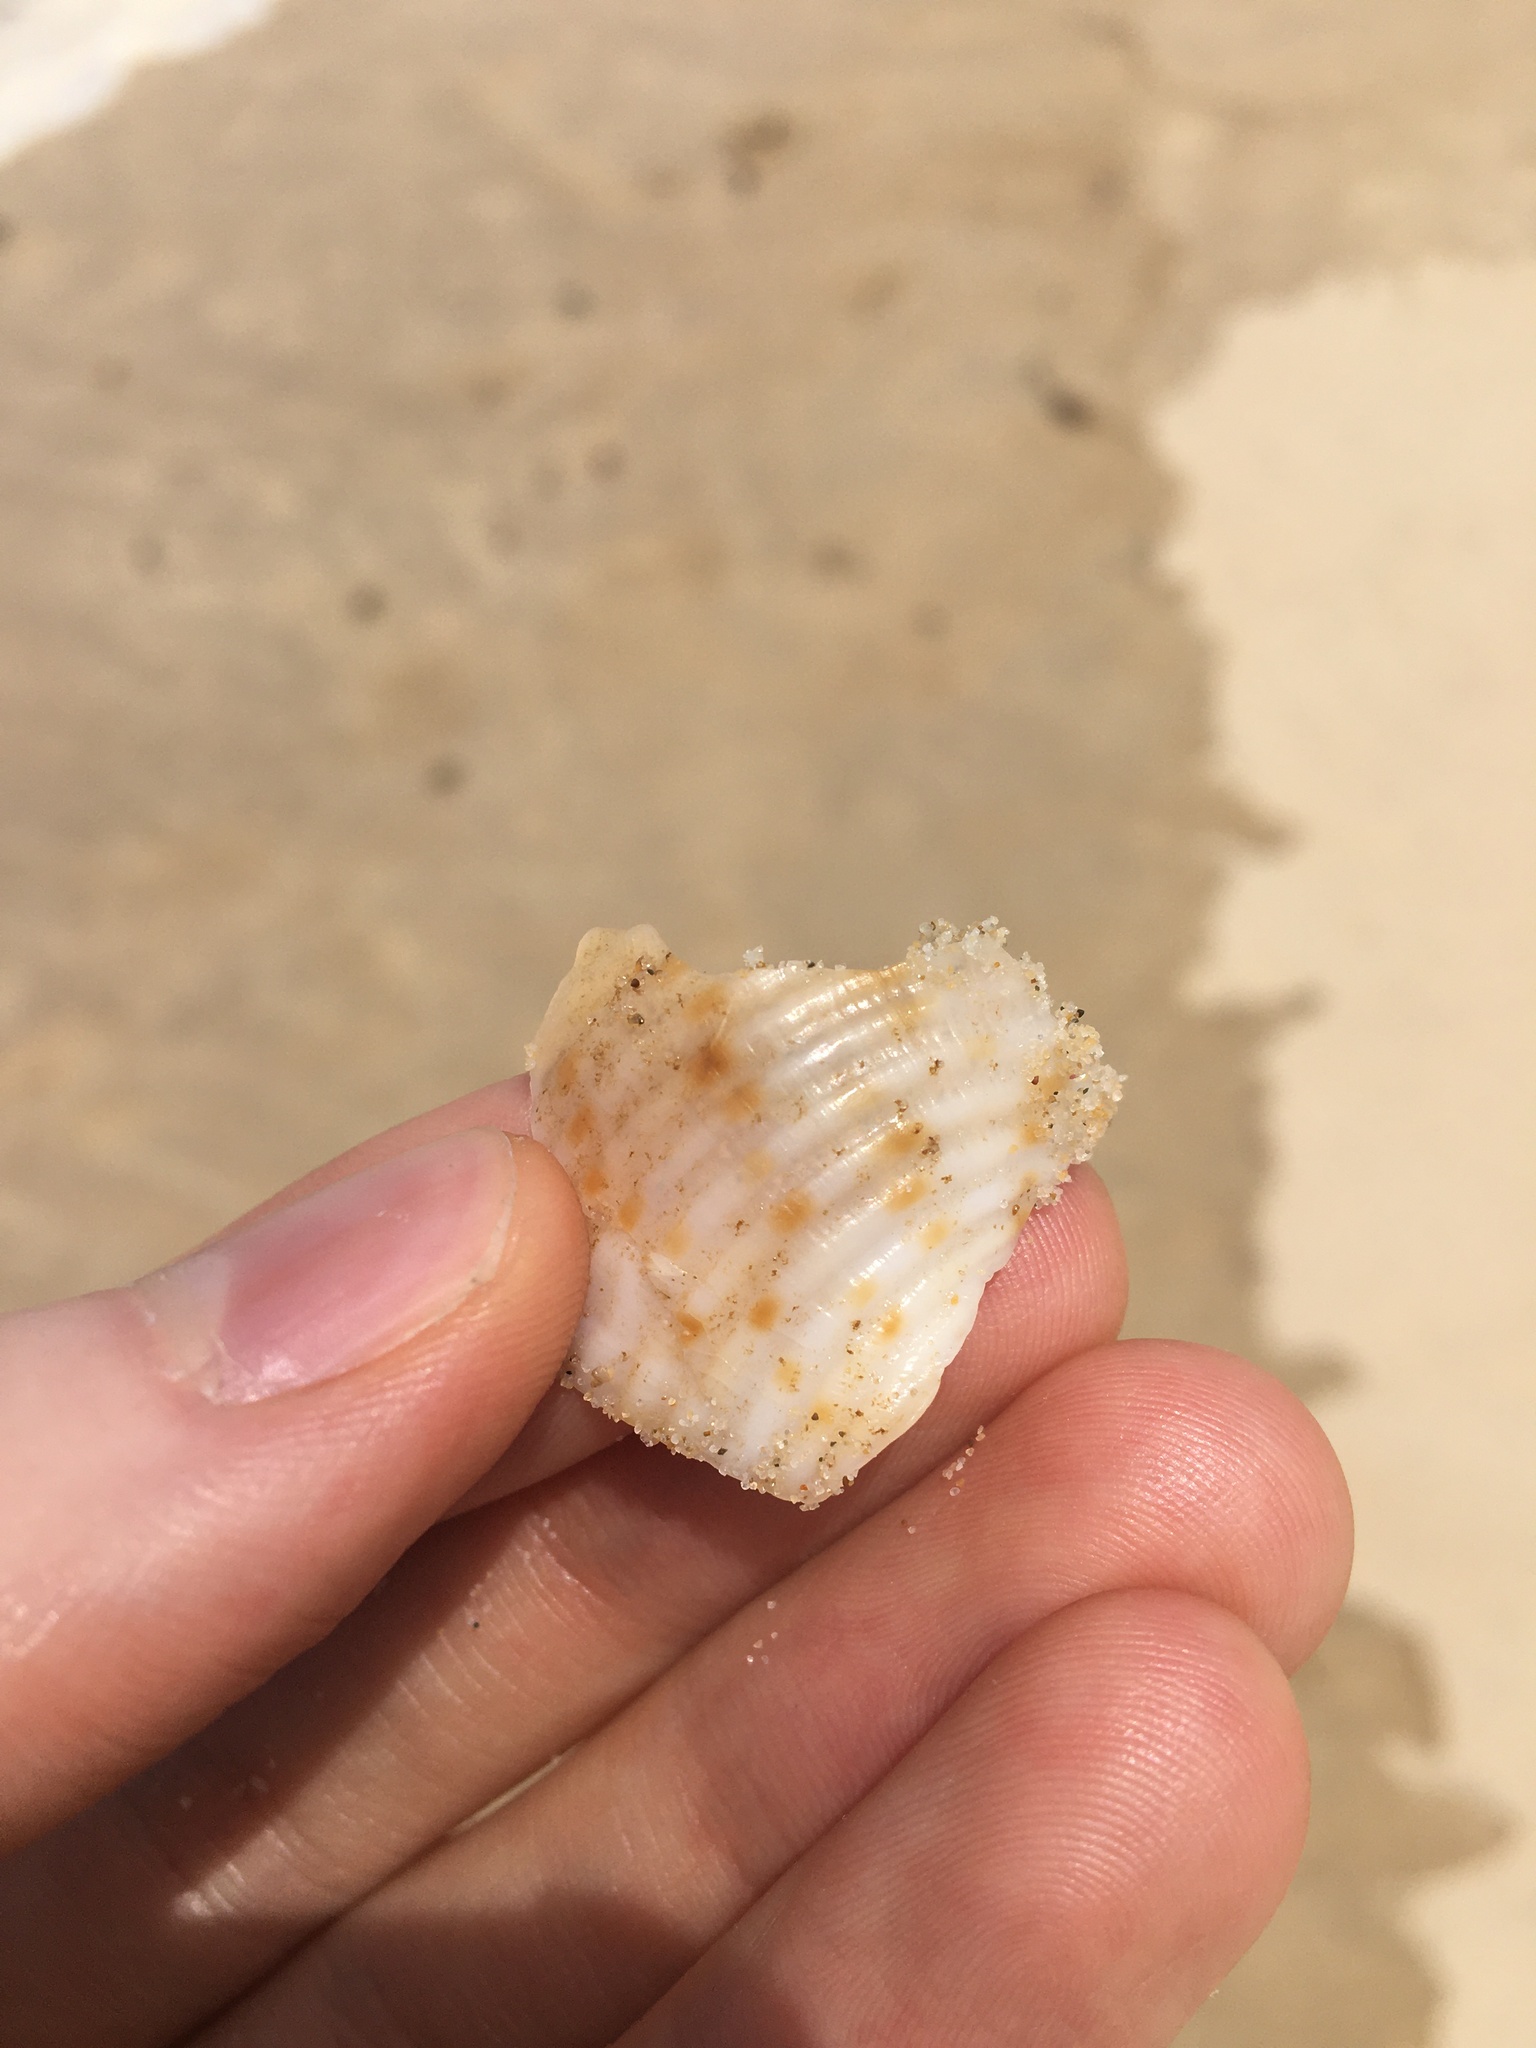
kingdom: Animalia
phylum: Mollusca
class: Gastropoda
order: Littorinimorpha
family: Tonnidae
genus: Tonna
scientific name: Tonna tankervillii
